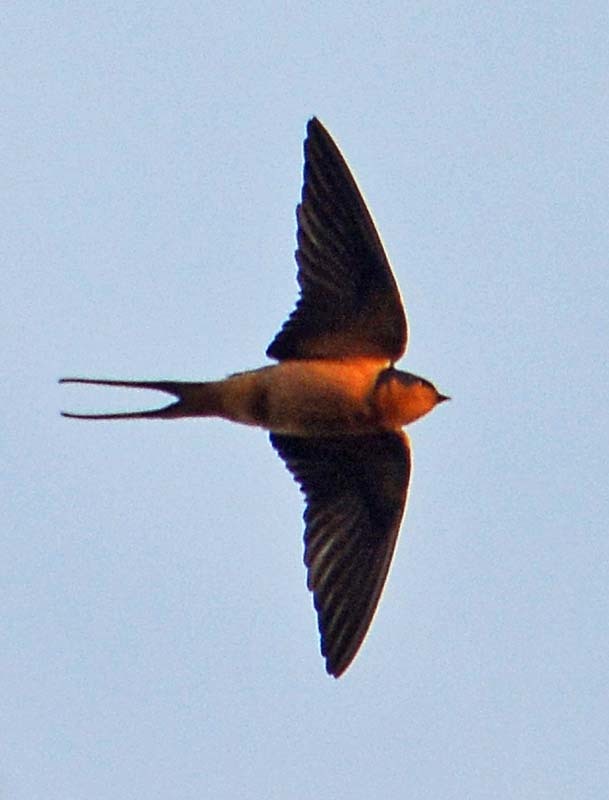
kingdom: Animalia
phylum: Chordata
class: Aves
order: Passeriformes
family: Hirundinidae
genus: Hirundo
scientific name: Hirundo rustica
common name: Barn swallow
